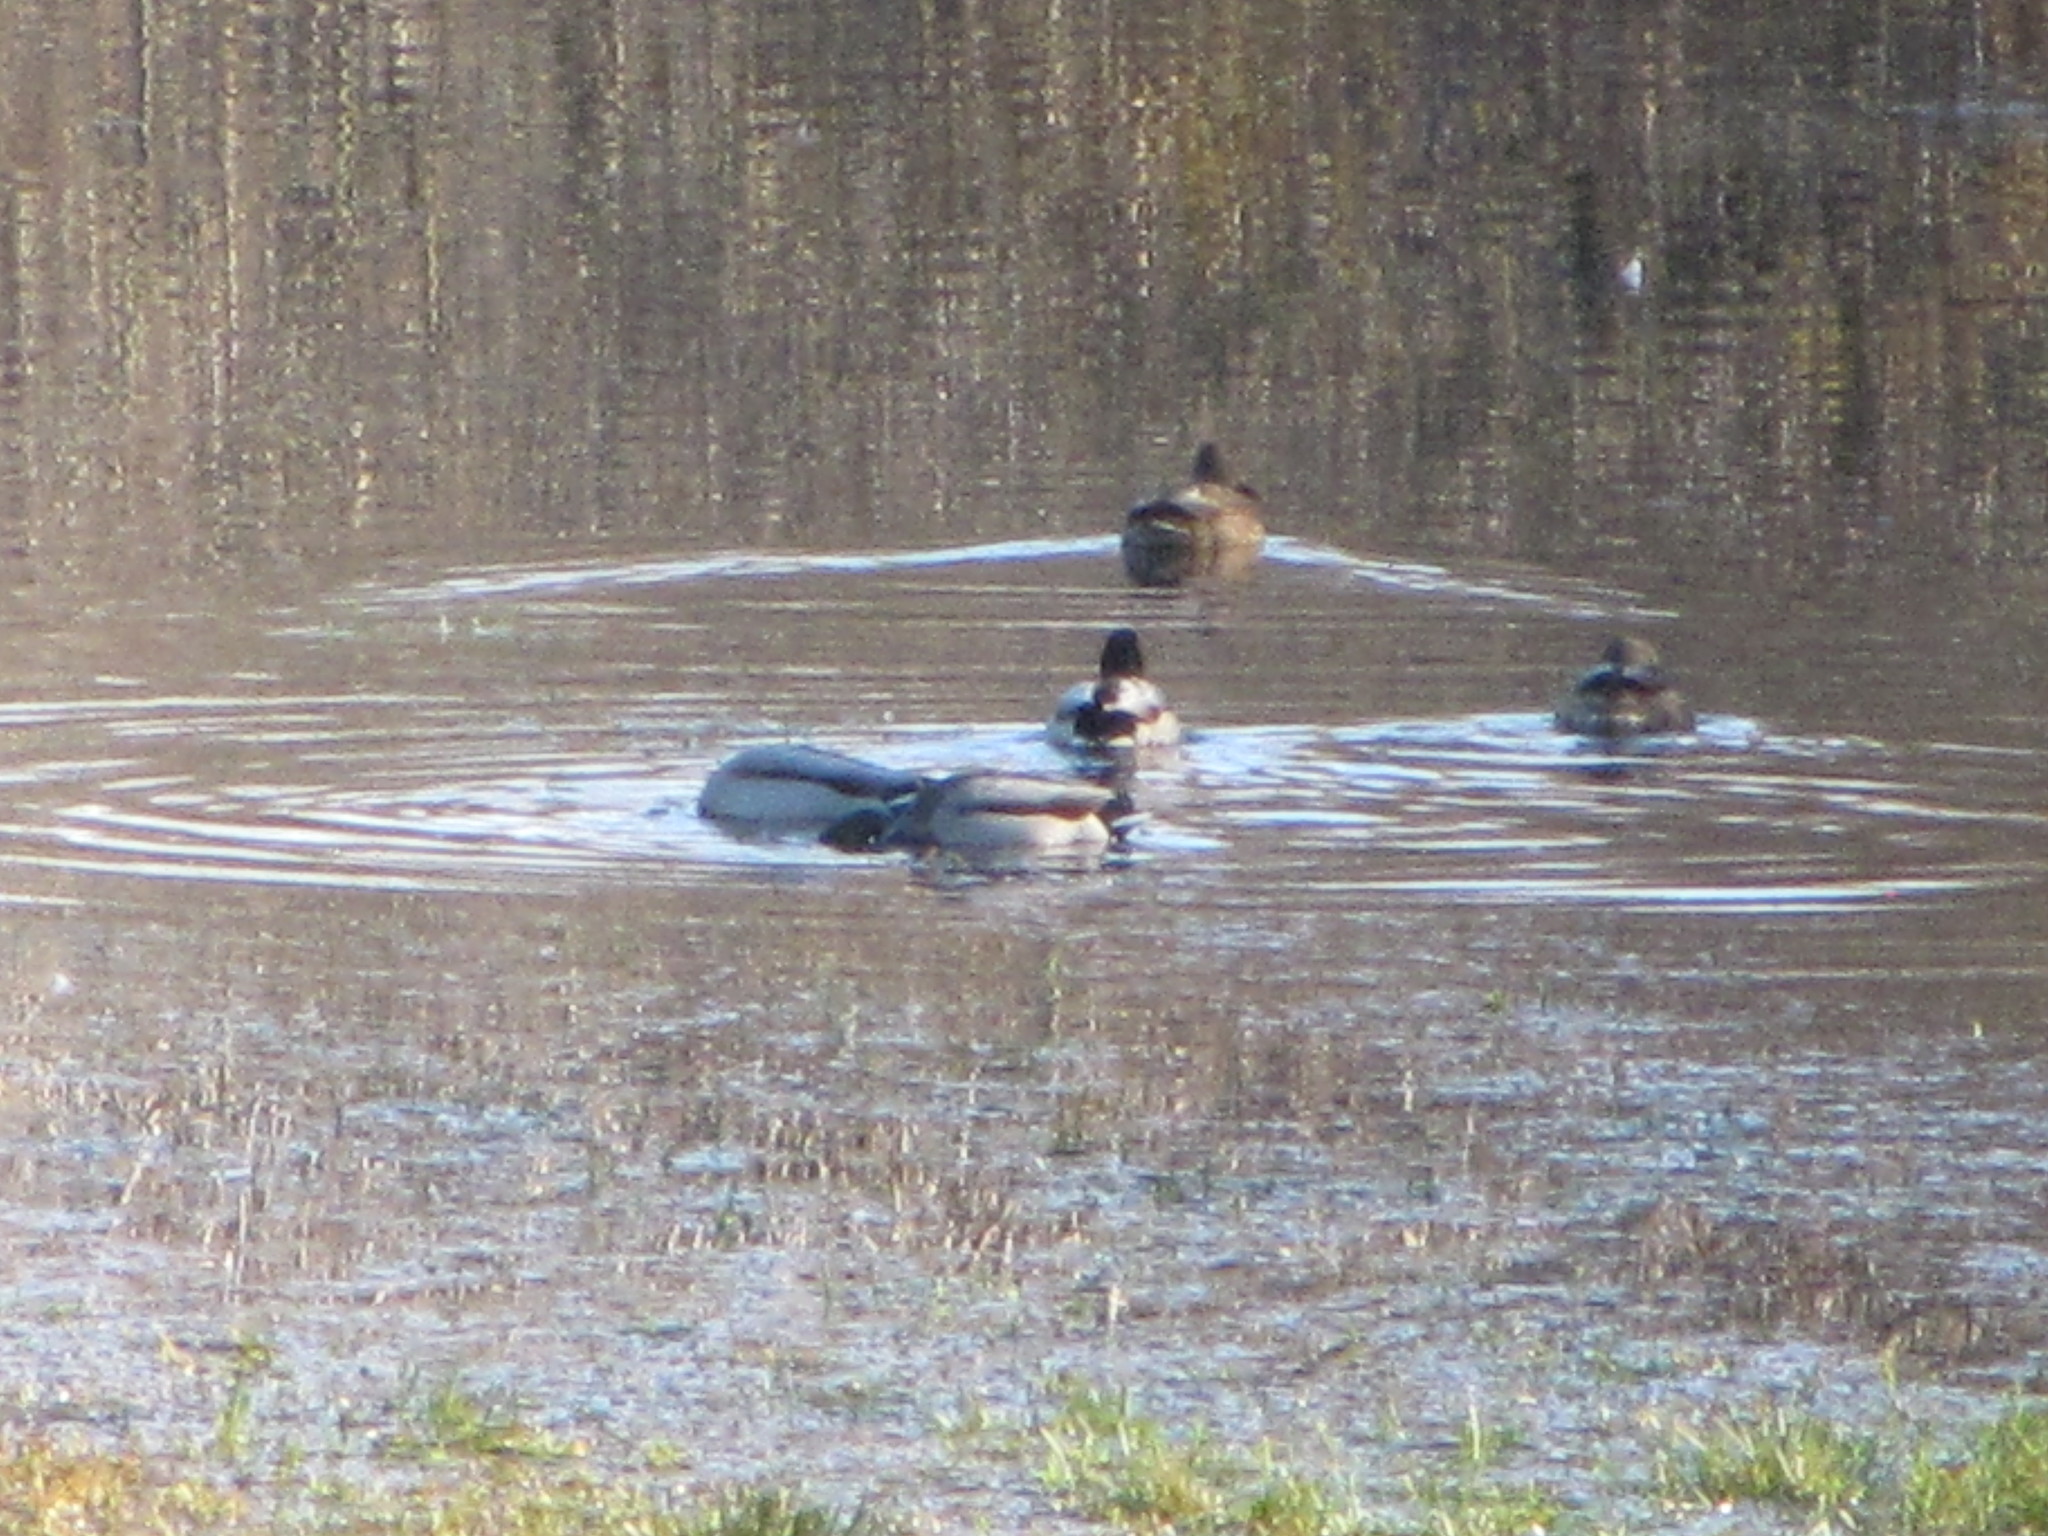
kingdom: Animalia
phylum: Chordata
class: Aves
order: Anseriformes
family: Anatidae
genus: Anas
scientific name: Anas platyrhynchos
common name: Mallard
